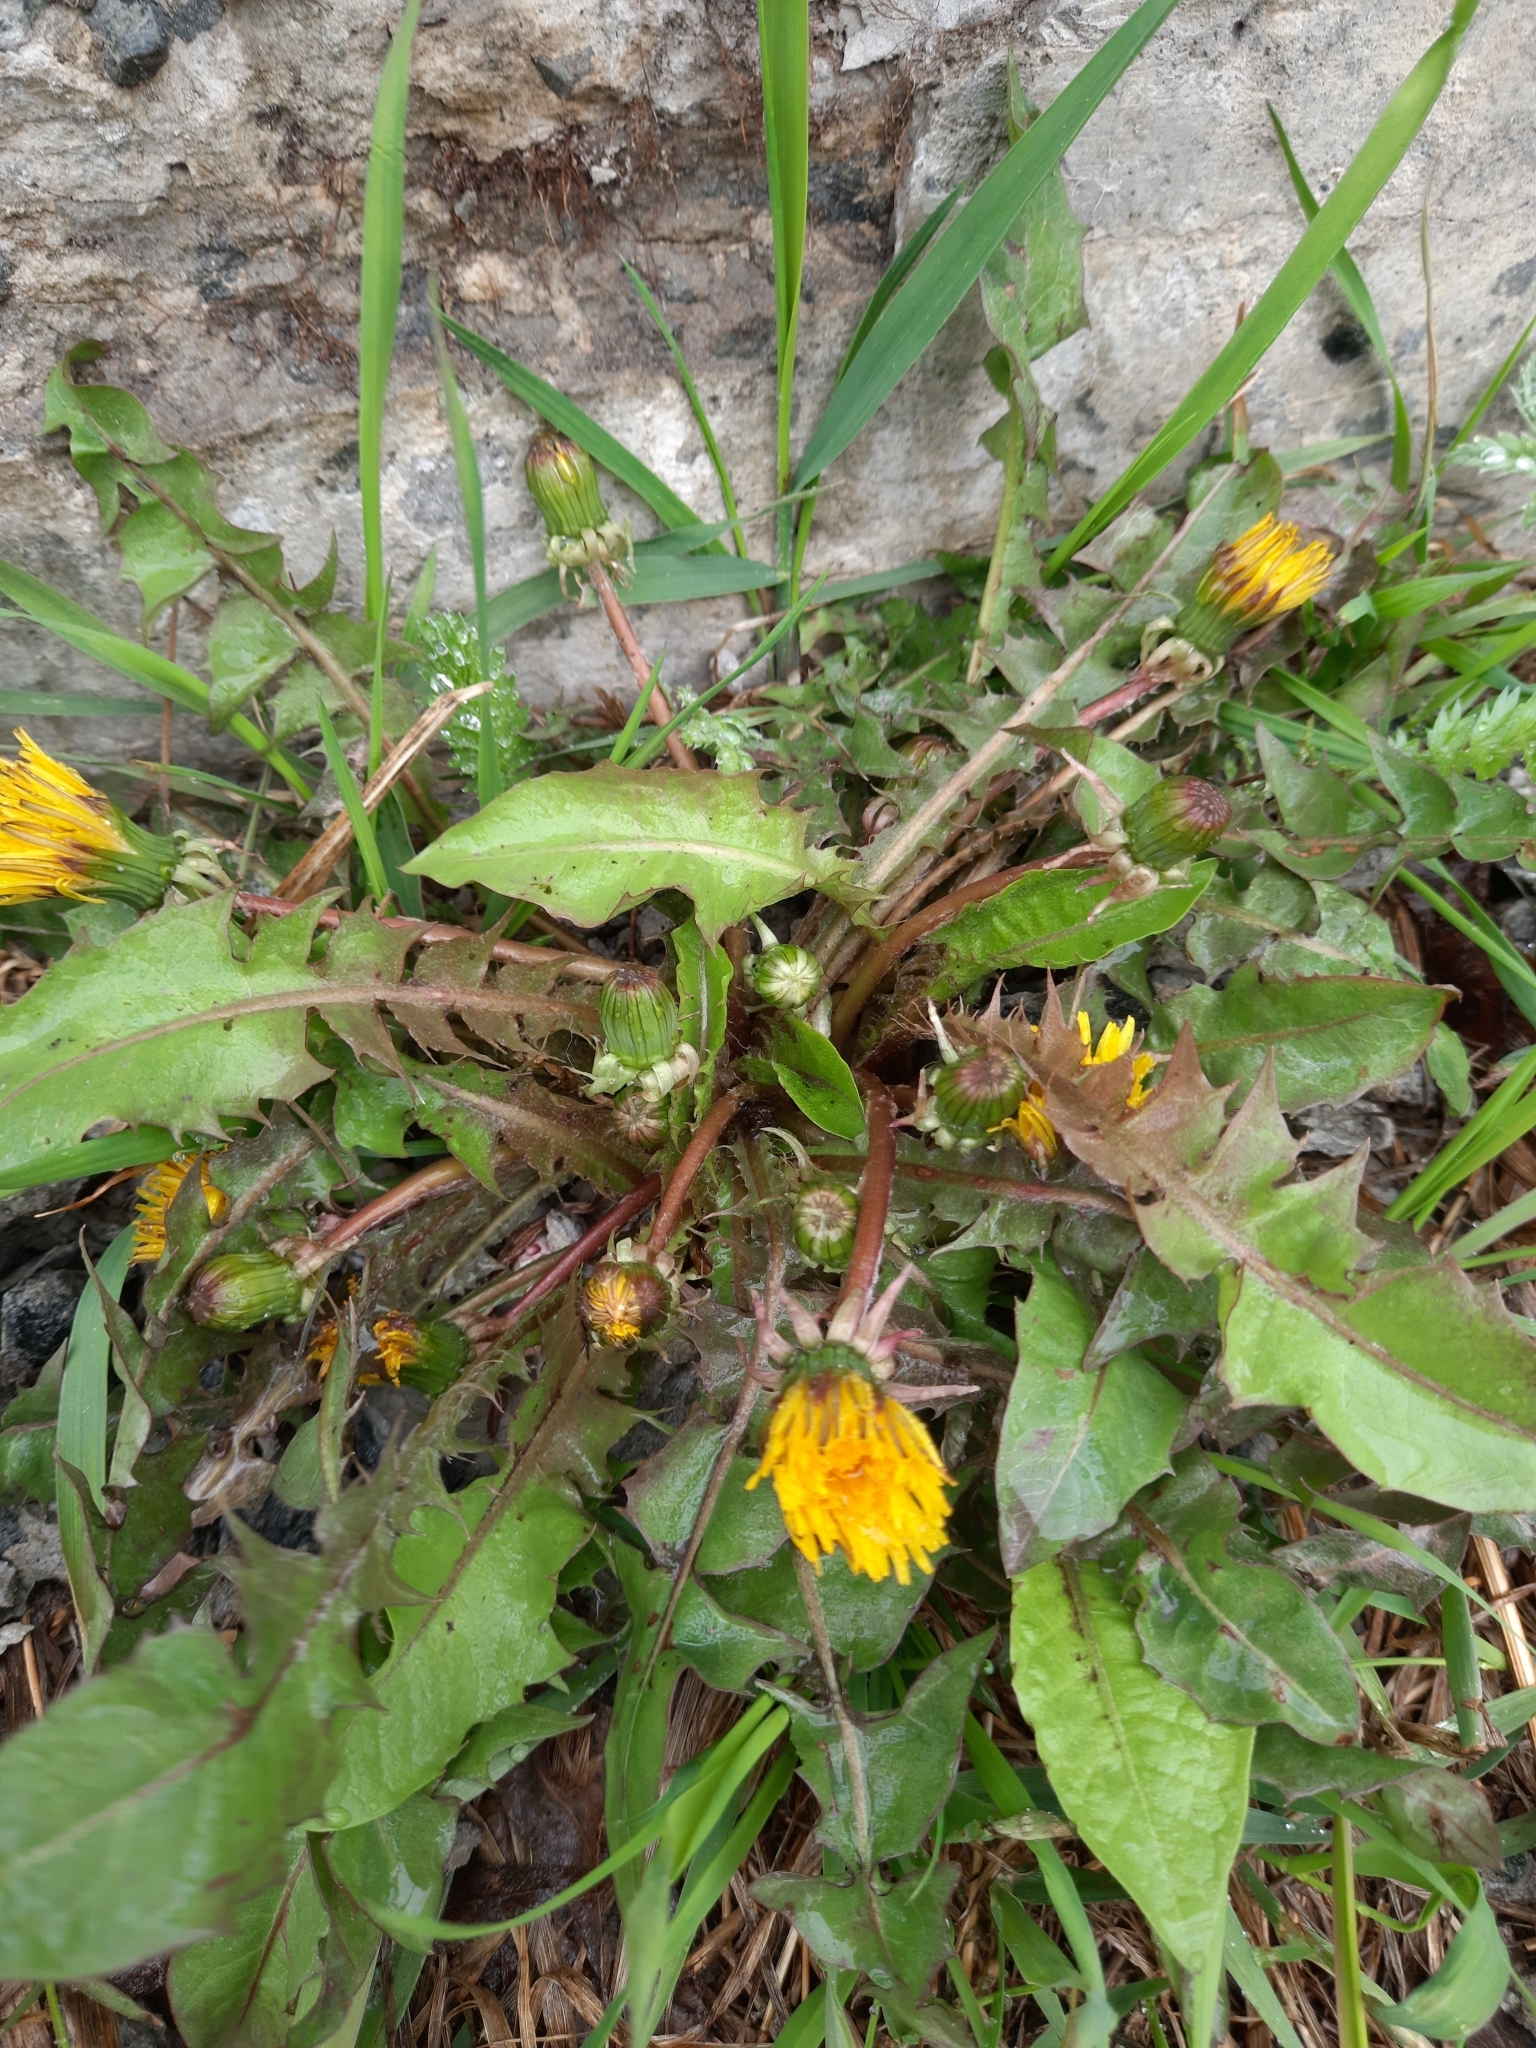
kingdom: Plantae
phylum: Tracheophyta
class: Magnoliopsida
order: Asterales
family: Asteraceae
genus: Taraxacum
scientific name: Taraxacum officinale
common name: Common dandelion
